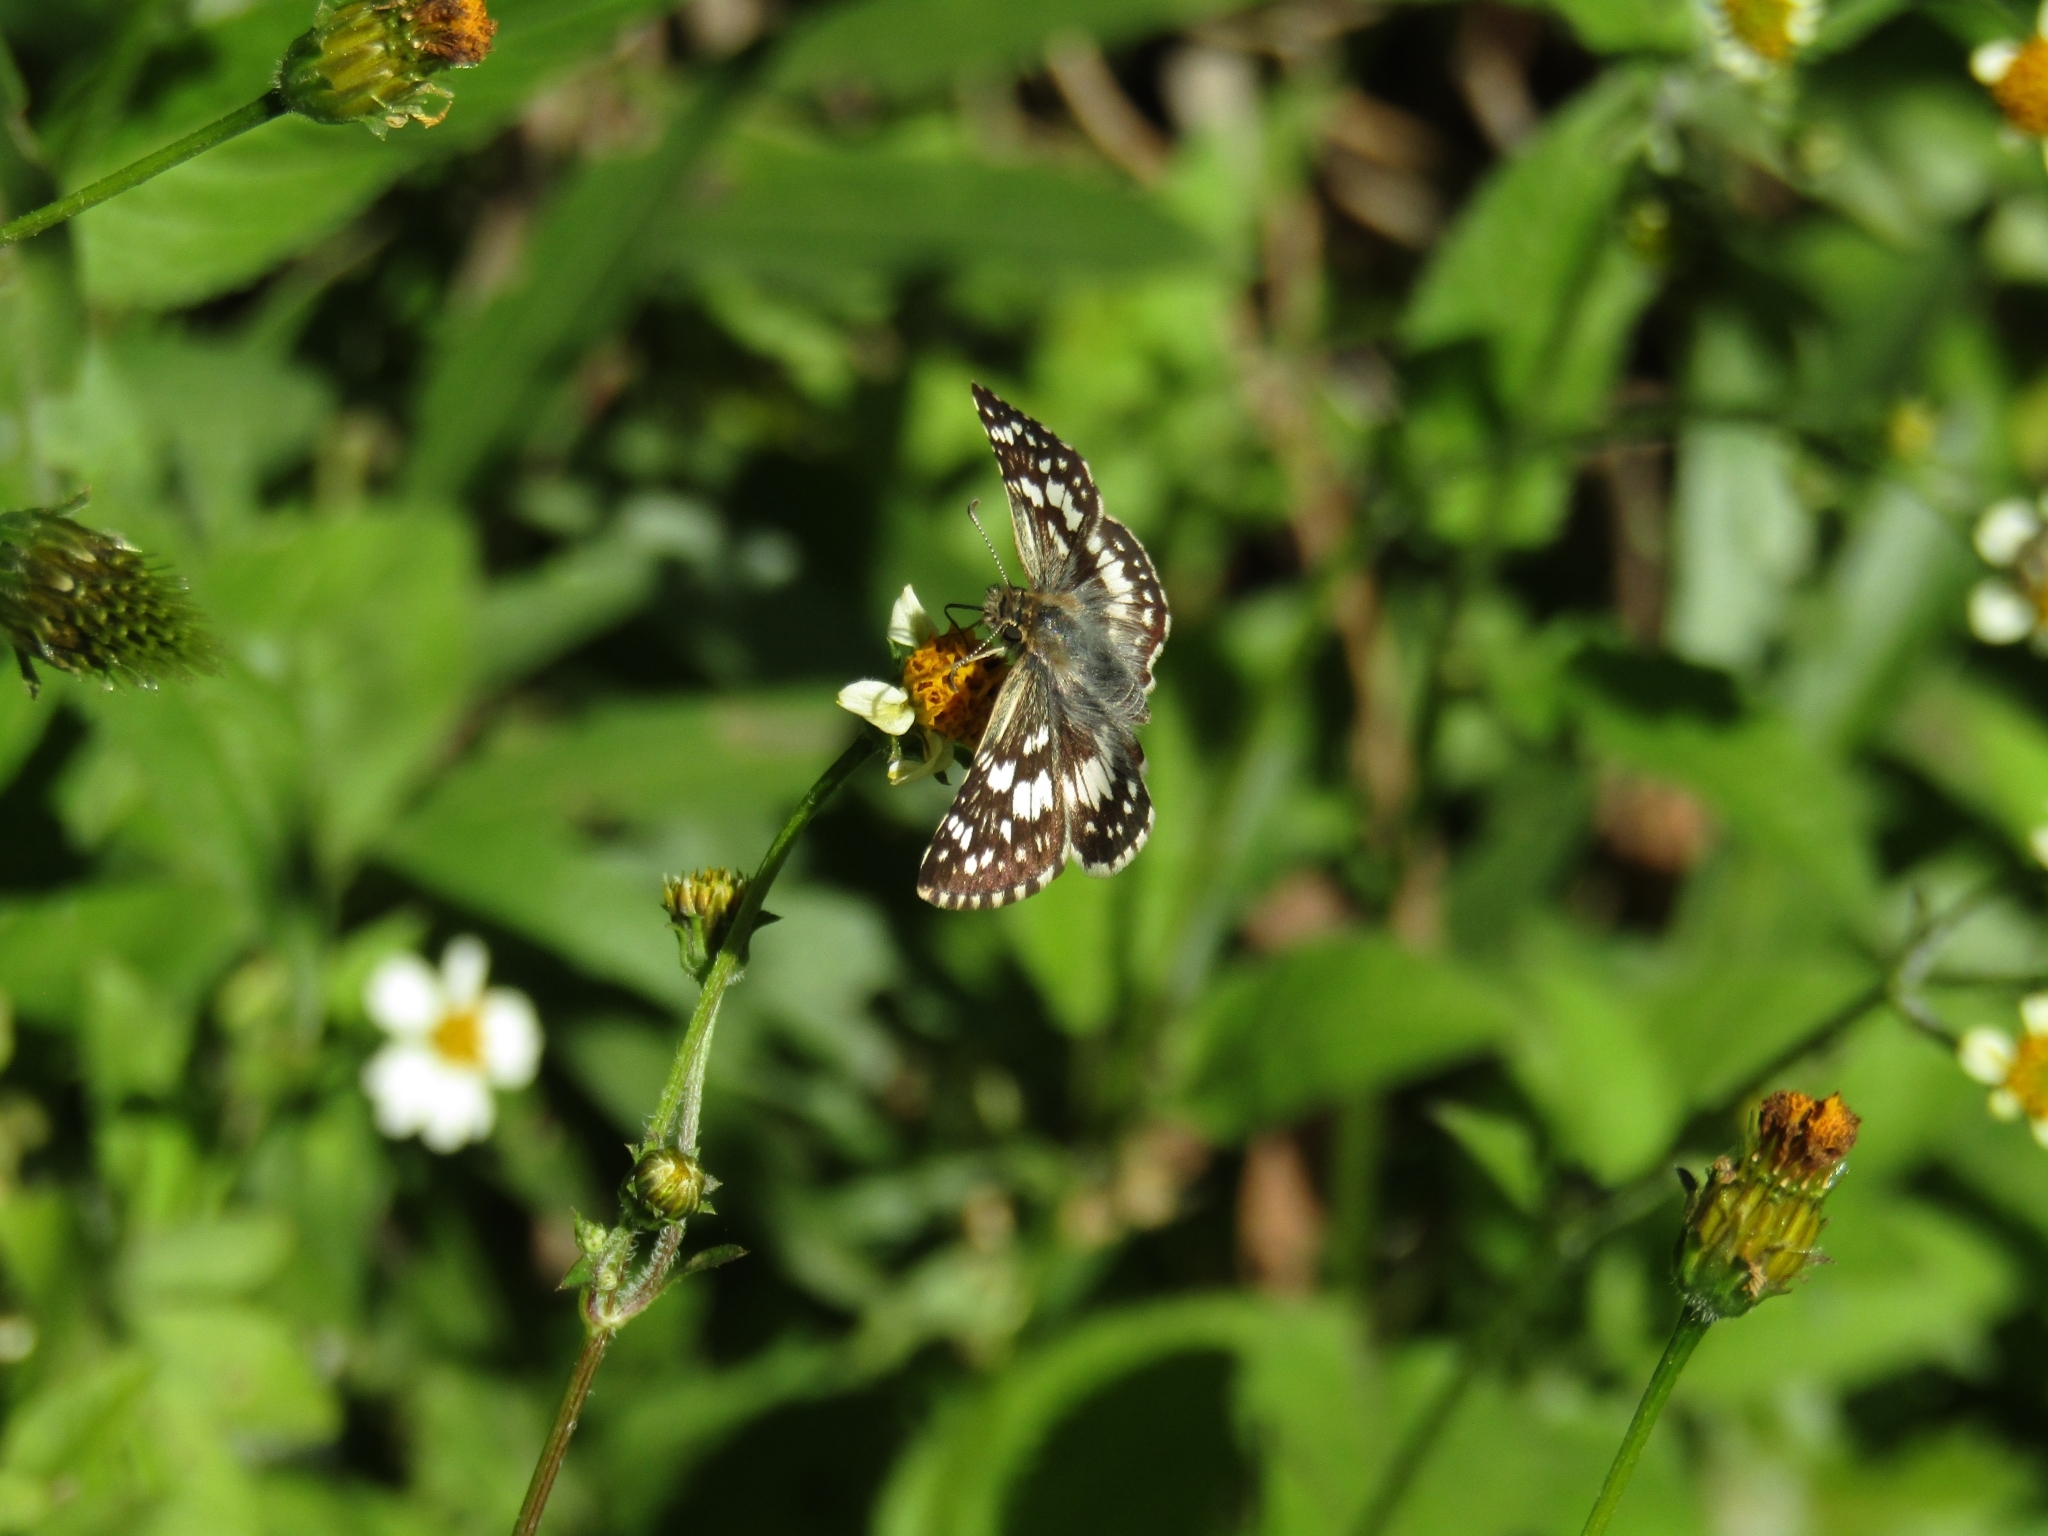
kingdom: Animalia
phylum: Arthropoda
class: Insecta
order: Lepidoptera
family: Hesperiidae
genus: Burnsius
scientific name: Burnsius orcynoides
